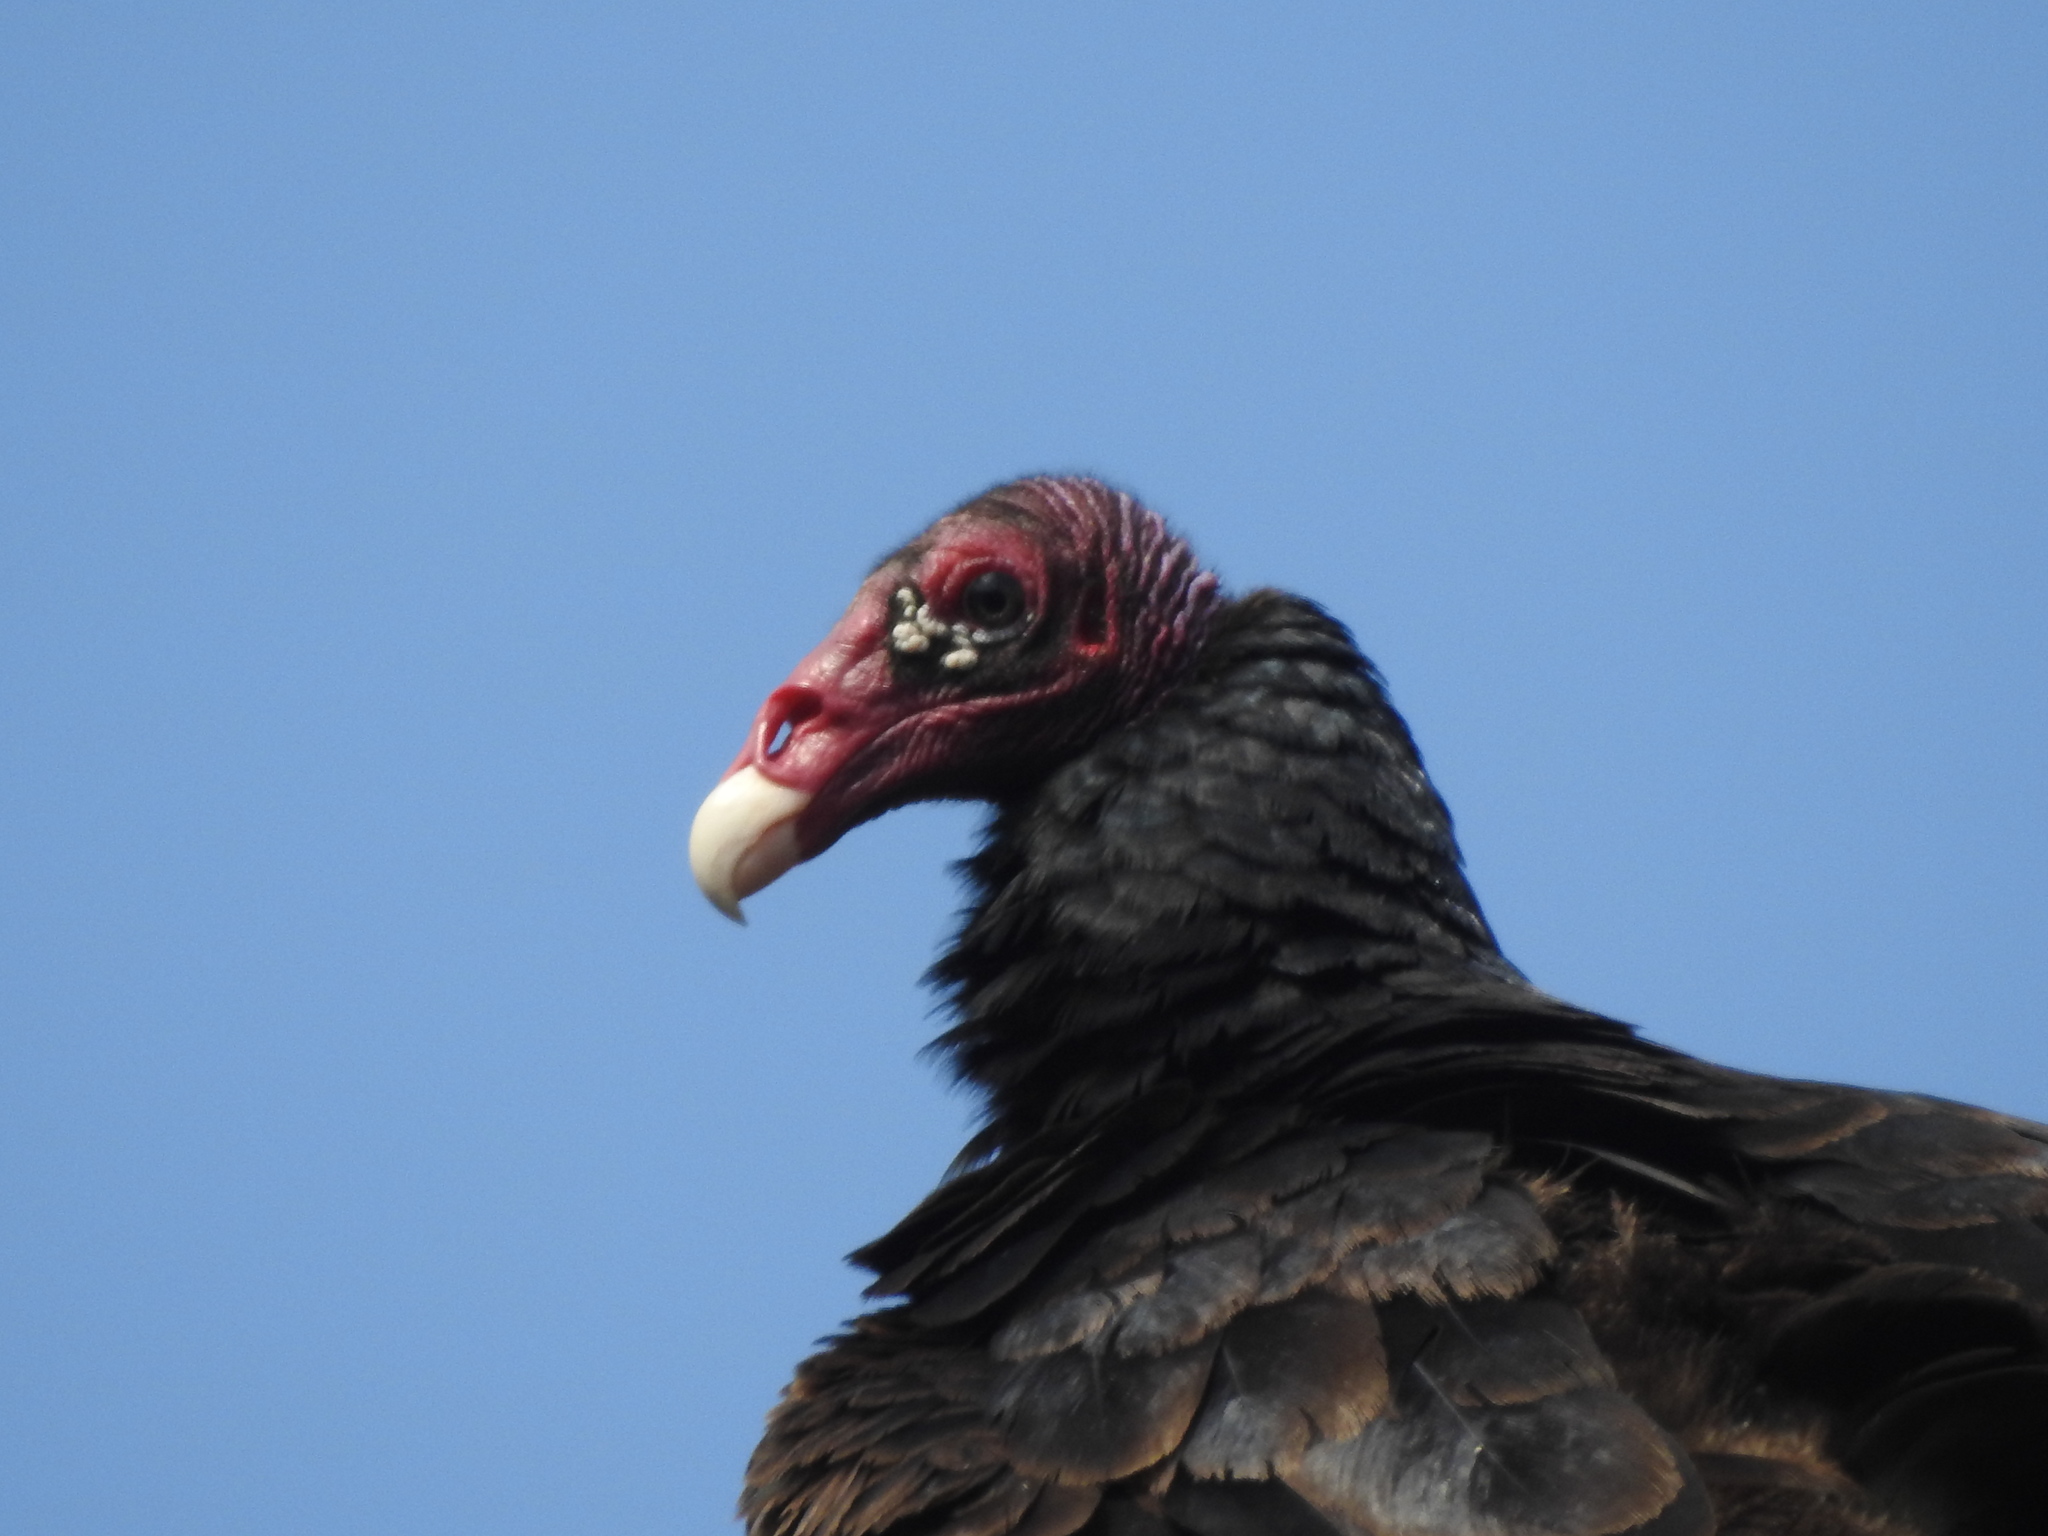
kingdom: Animalia
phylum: Chordata
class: Aves
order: Accipitriformes
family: Cathartidae
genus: Cathartes
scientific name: Cathartes aura
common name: Turkey vulture
